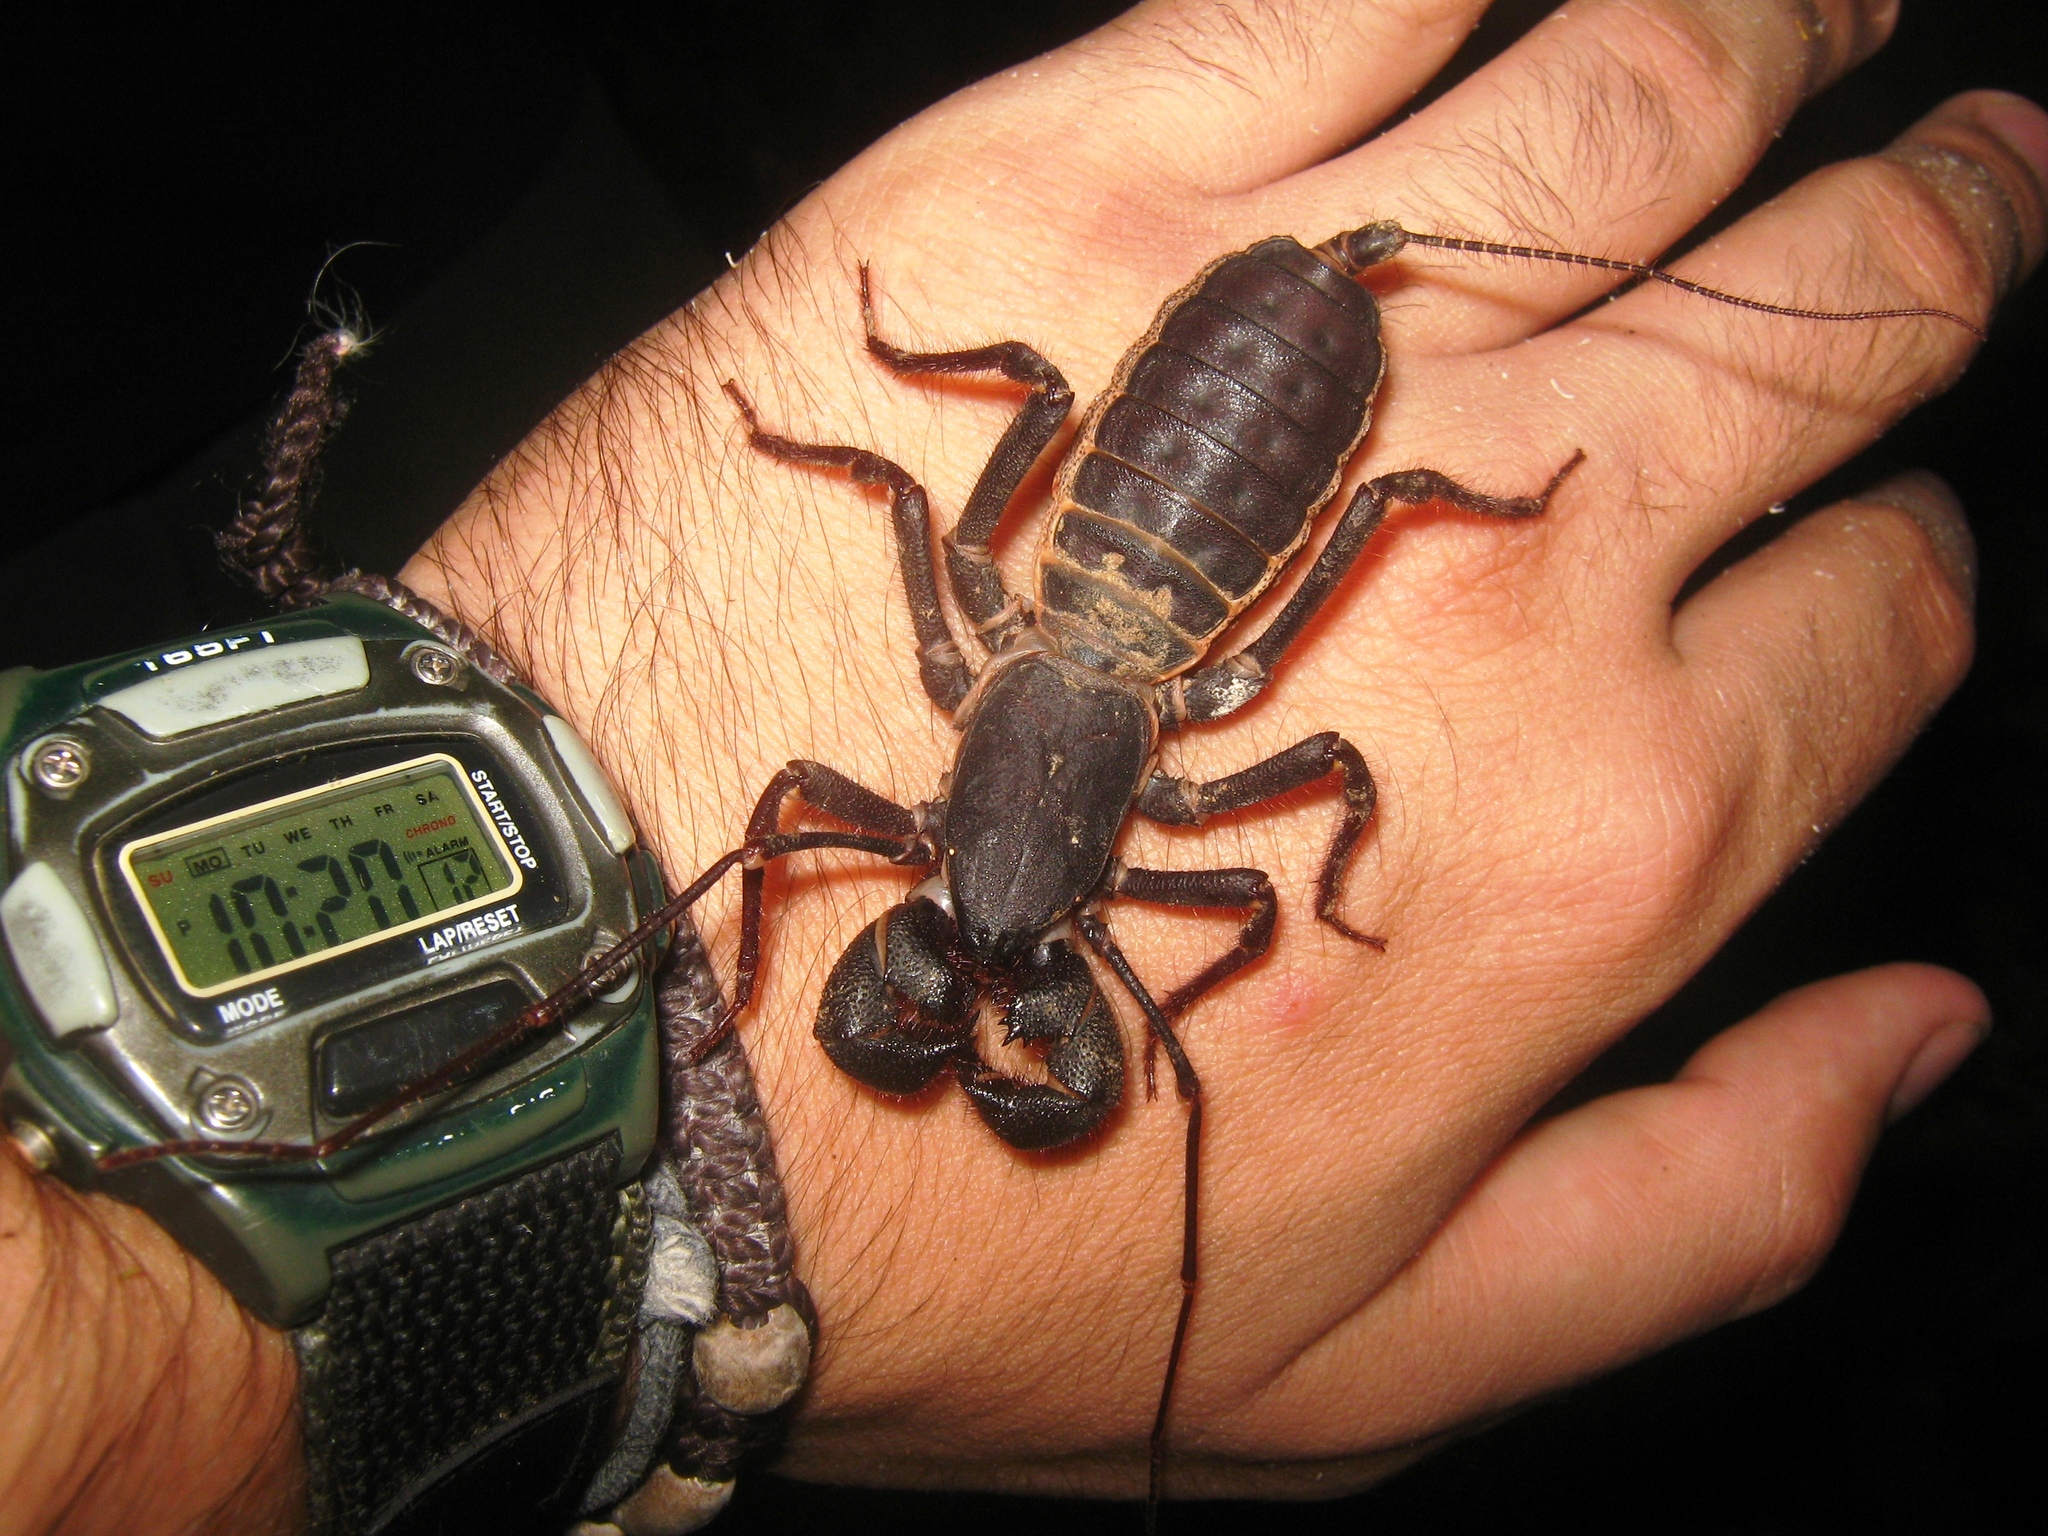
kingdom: Animalia
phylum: Arthropoda
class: Arachnida
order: Uropygi
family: Thelyphonidae
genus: Mastigoproctus
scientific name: Mastigoproctus giganteus
